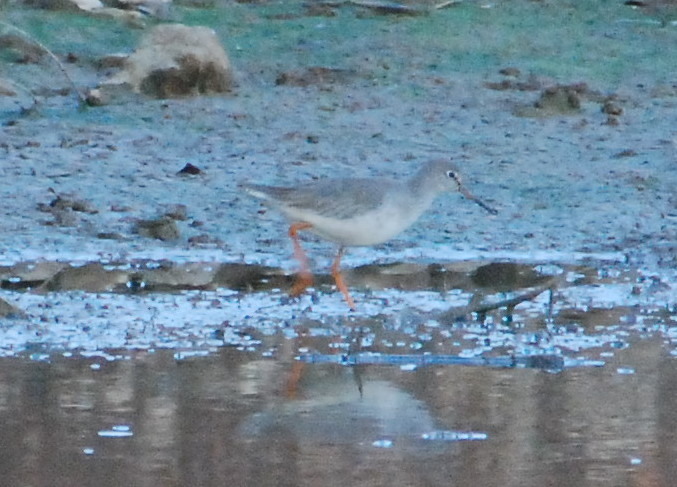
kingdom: Animalia
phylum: Chordata
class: Aves
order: Charadriiformes
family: Scolopacidae
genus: Tringa
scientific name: Tringa totanus
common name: Common redshank
